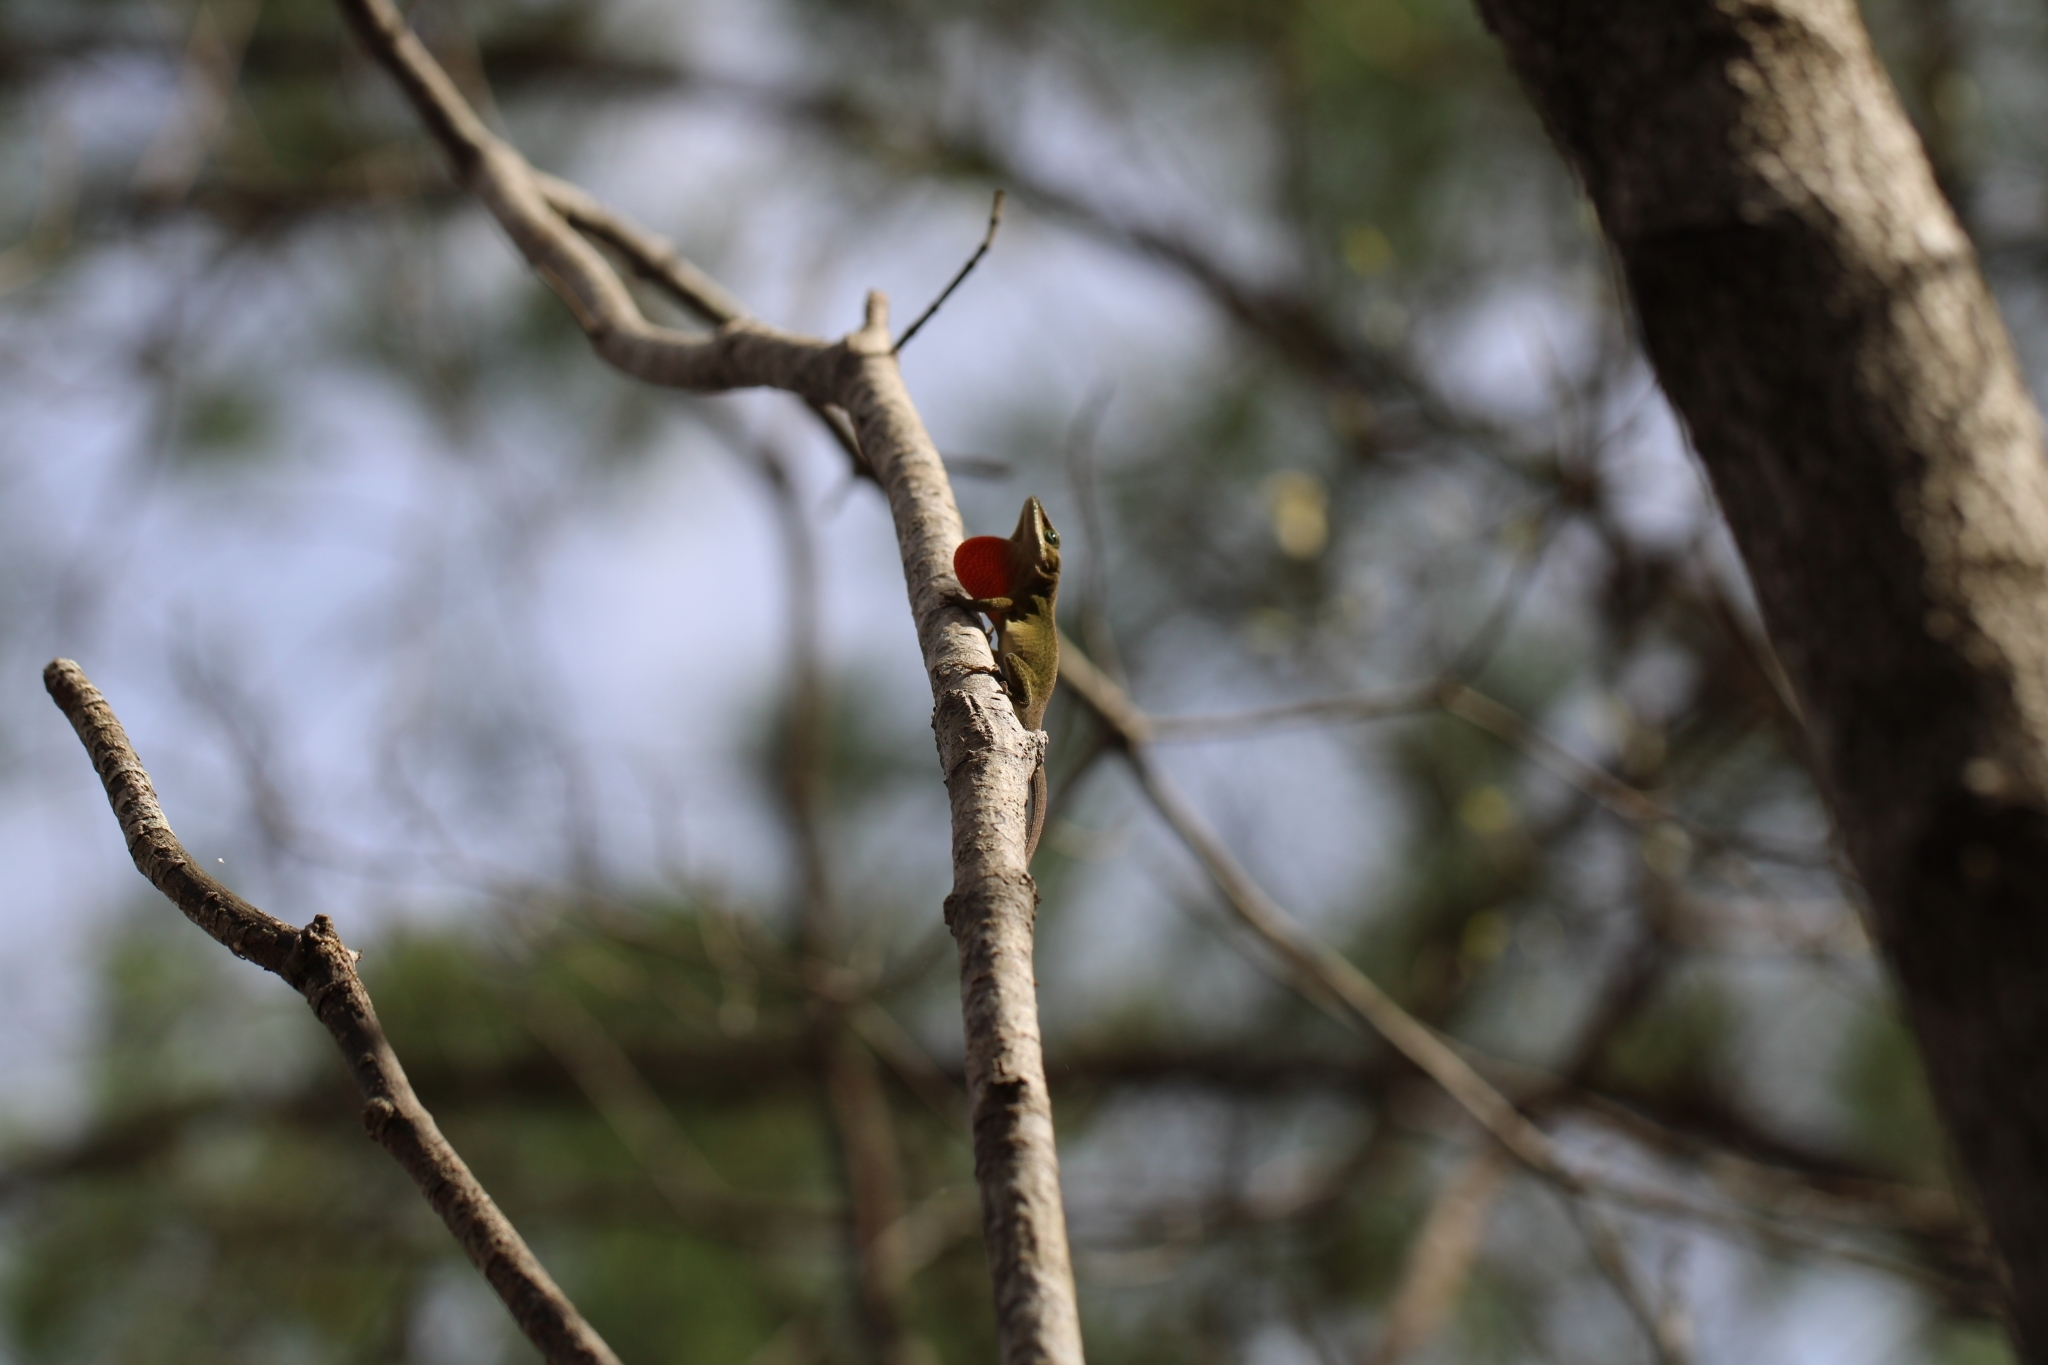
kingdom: Animalia
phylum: Chordata
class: Squamata
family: Dactyloidae
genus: Anolis
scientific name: Anolis carolinensis
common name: Green anole
